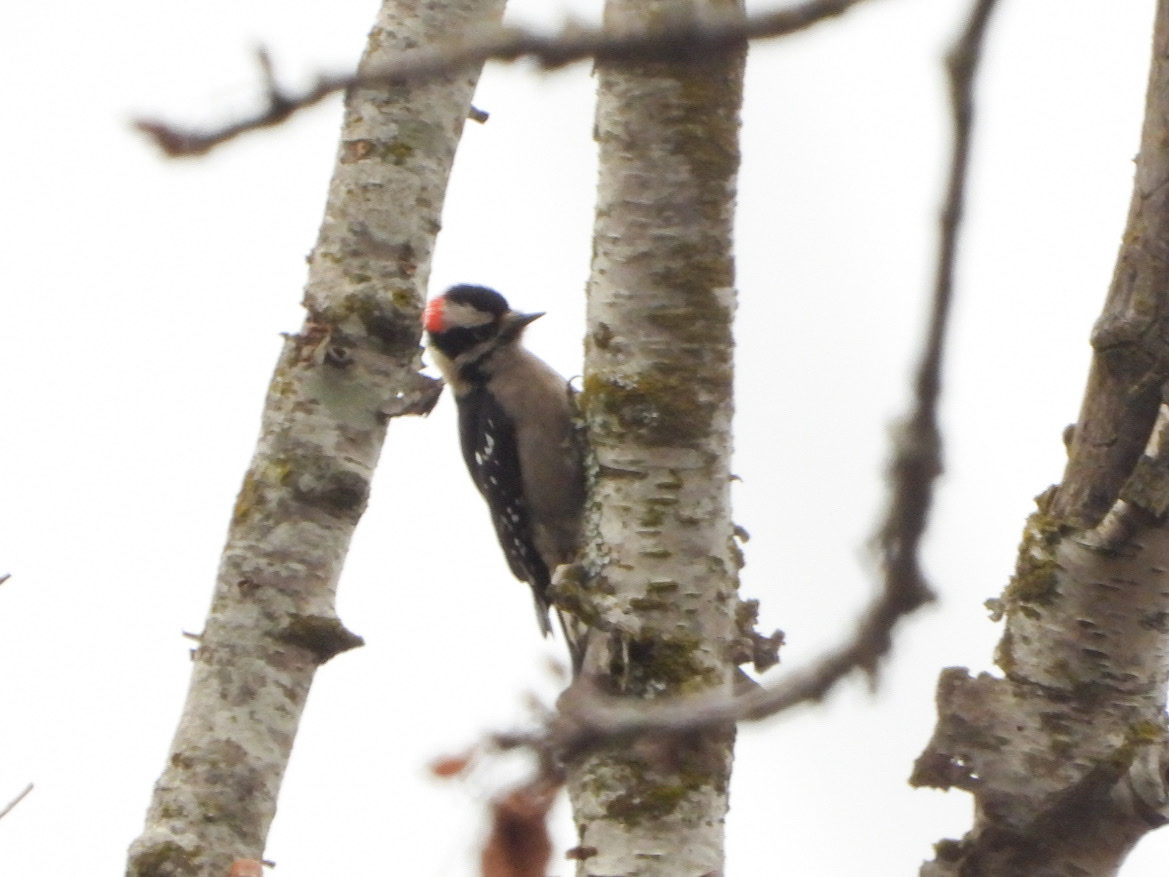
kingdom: Animalia
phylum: Chordata
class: Aves
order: Piciformes
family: Picidae
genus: Dryobates
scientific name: Dryobates pubescens
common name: Downy woodpecker
